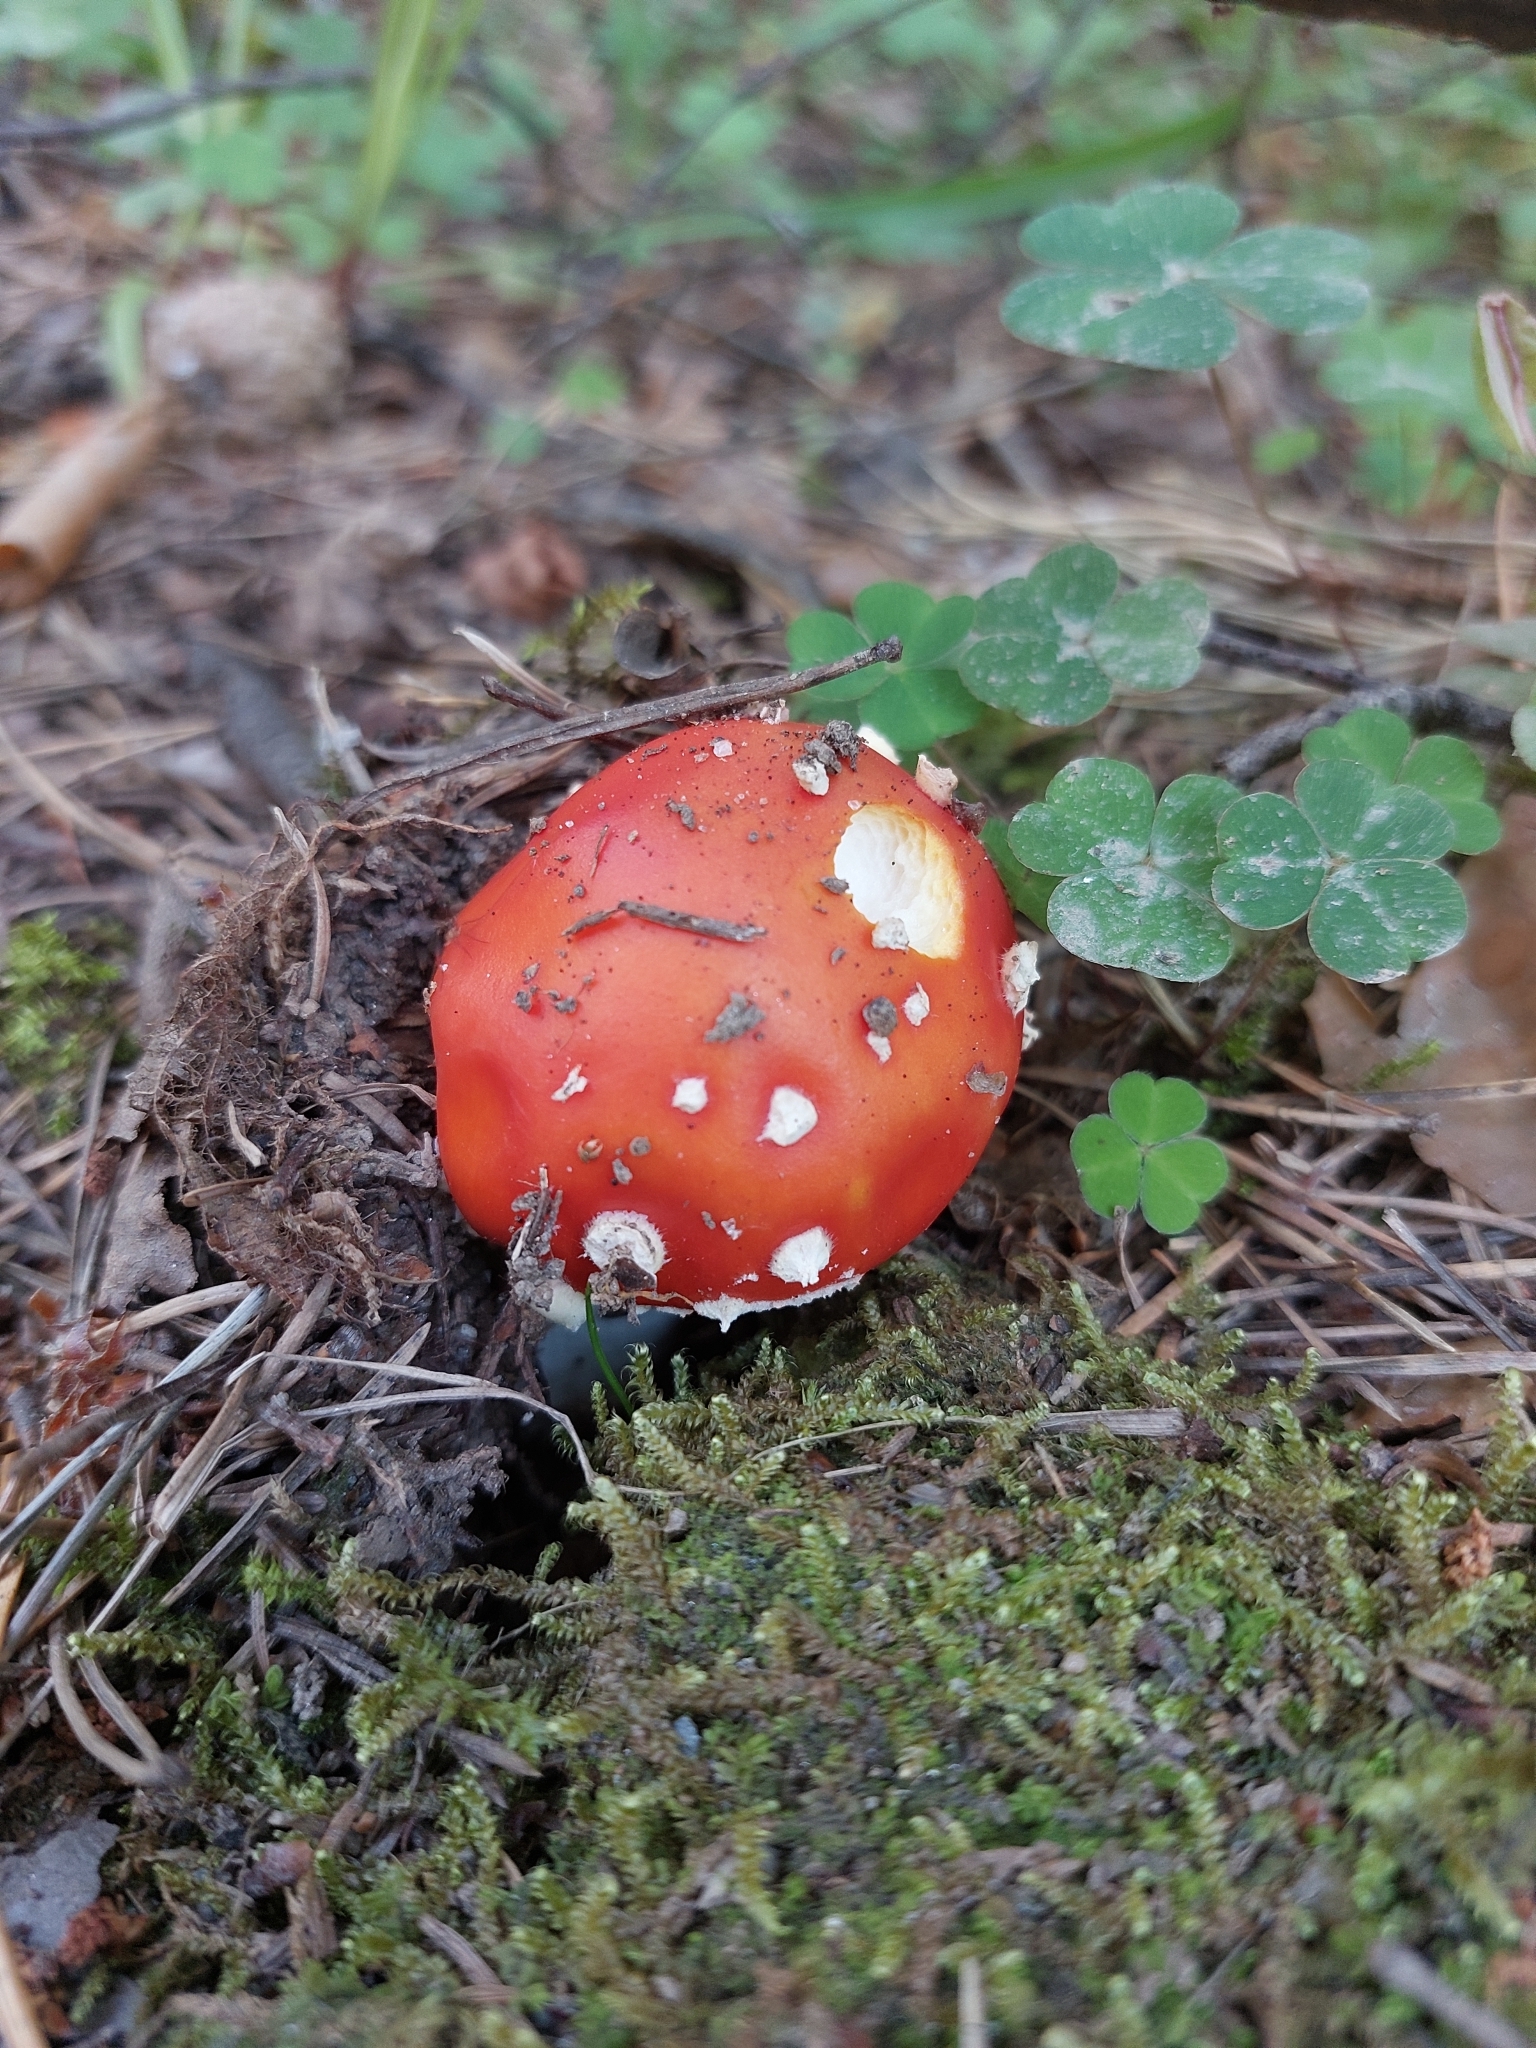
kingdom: Fungi
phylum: Basidiomycota
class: Agaricomycetes
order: Agaricales
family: Amanitaceae
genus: Amanita
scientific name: Amanita muscaria
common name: Fly agaric
